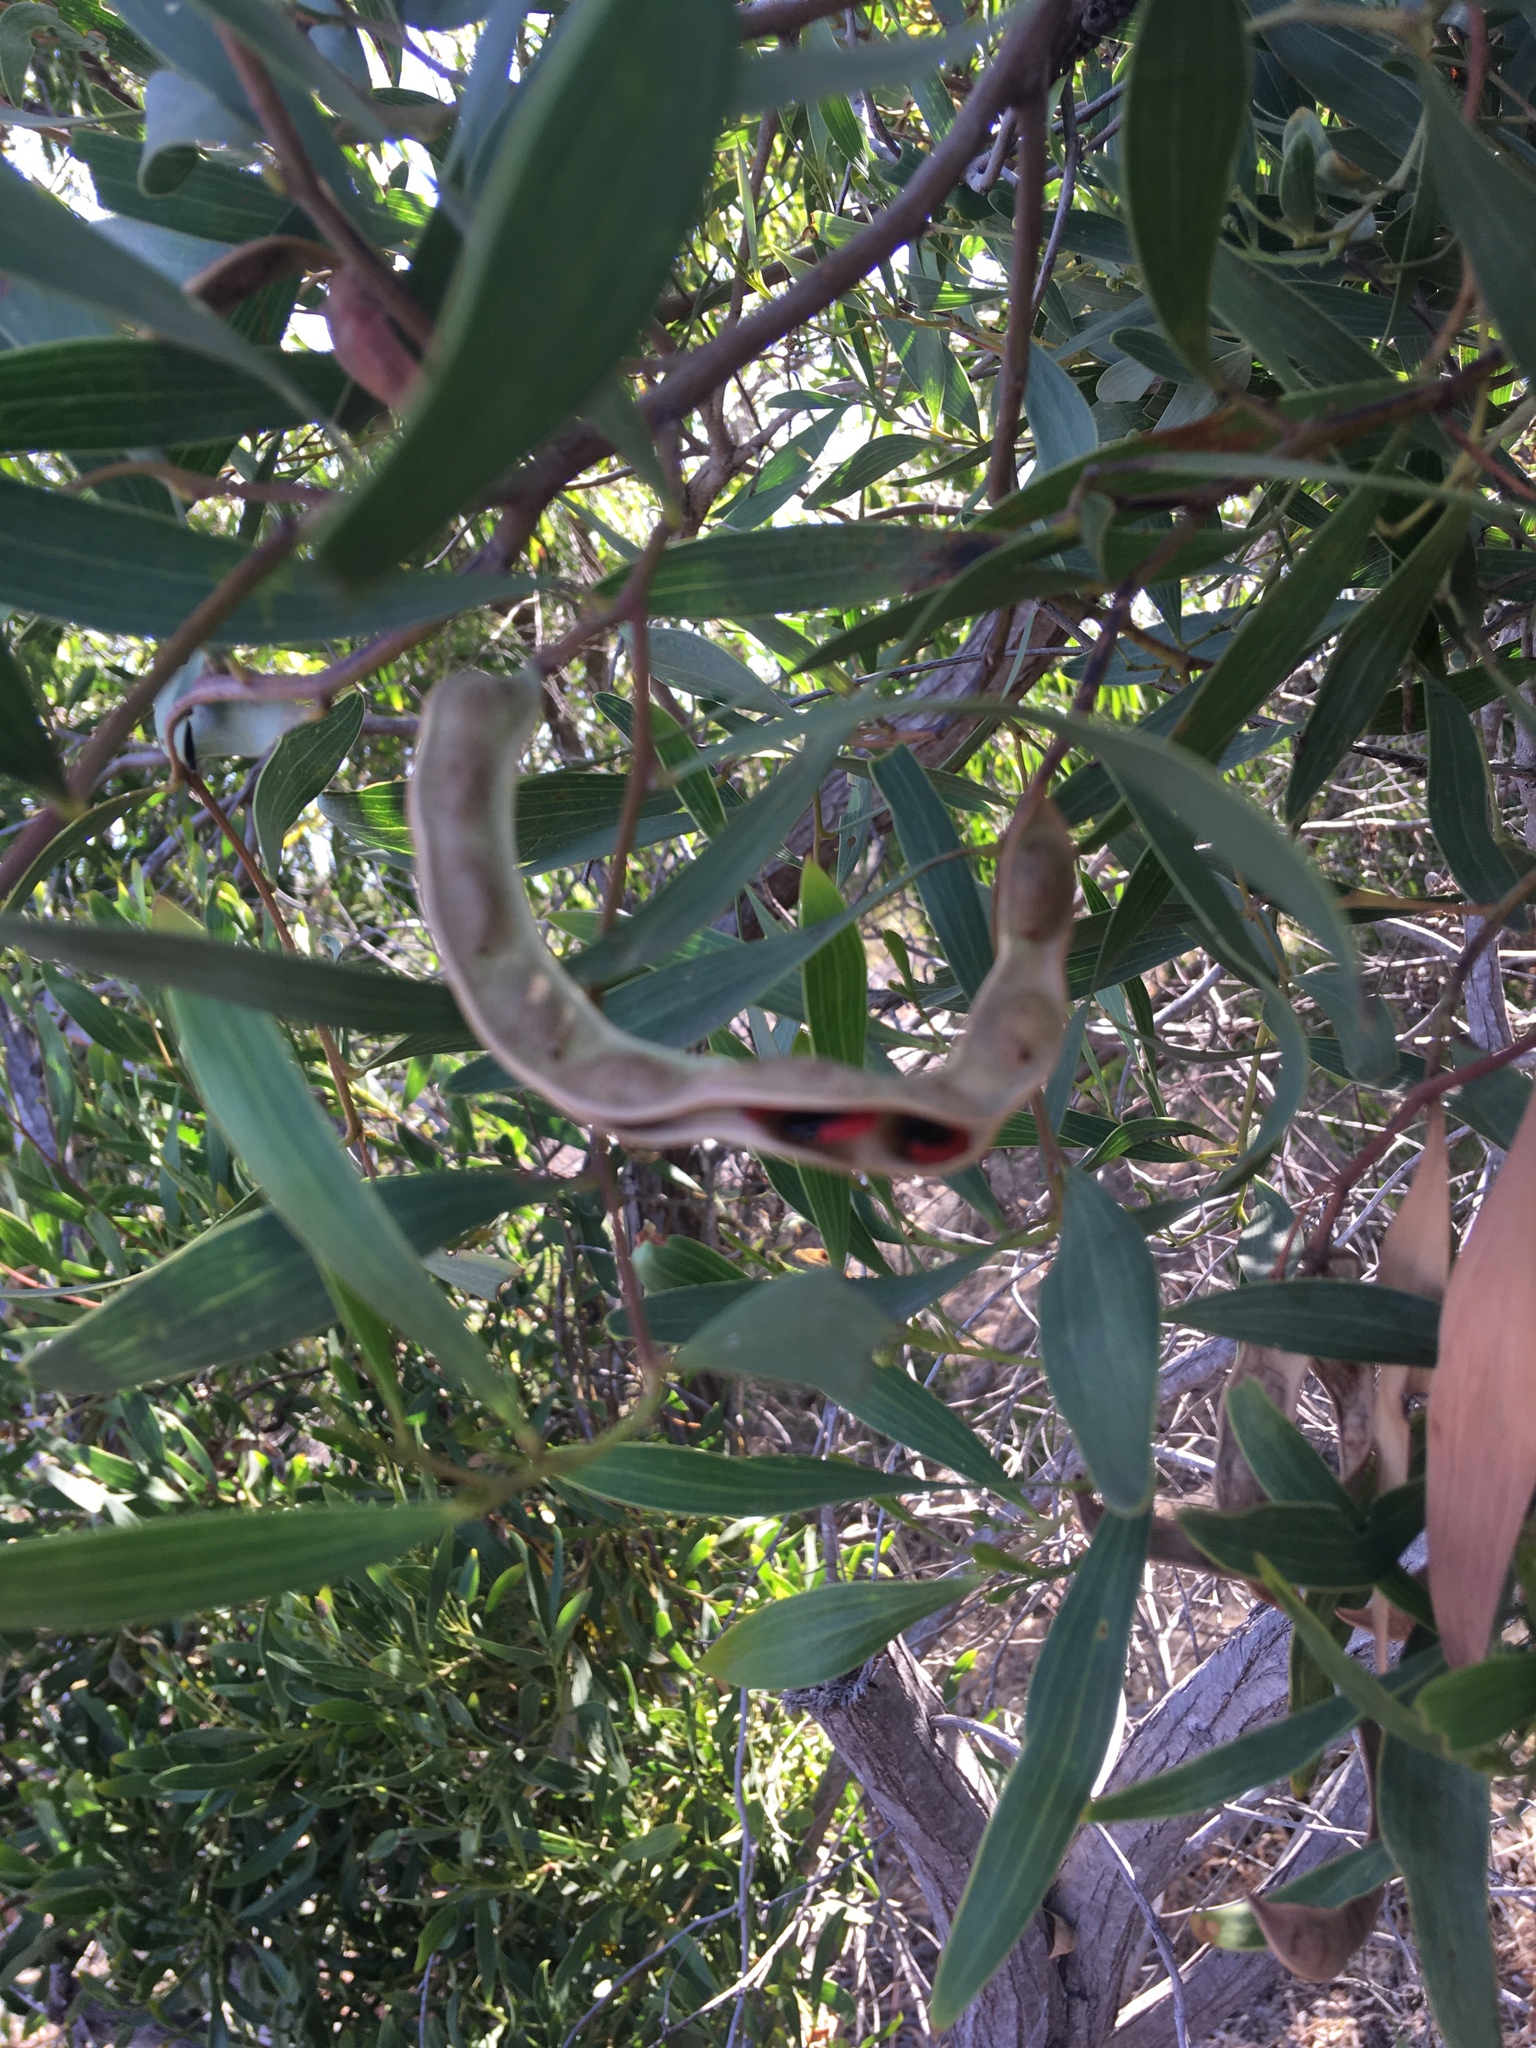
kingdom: Plantae
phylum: Tracheophyta
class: Magnoliopsida
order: Fabales
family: Fabaceae
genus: Acacia
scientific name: Acacia cyclops
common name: Coastal wattle
